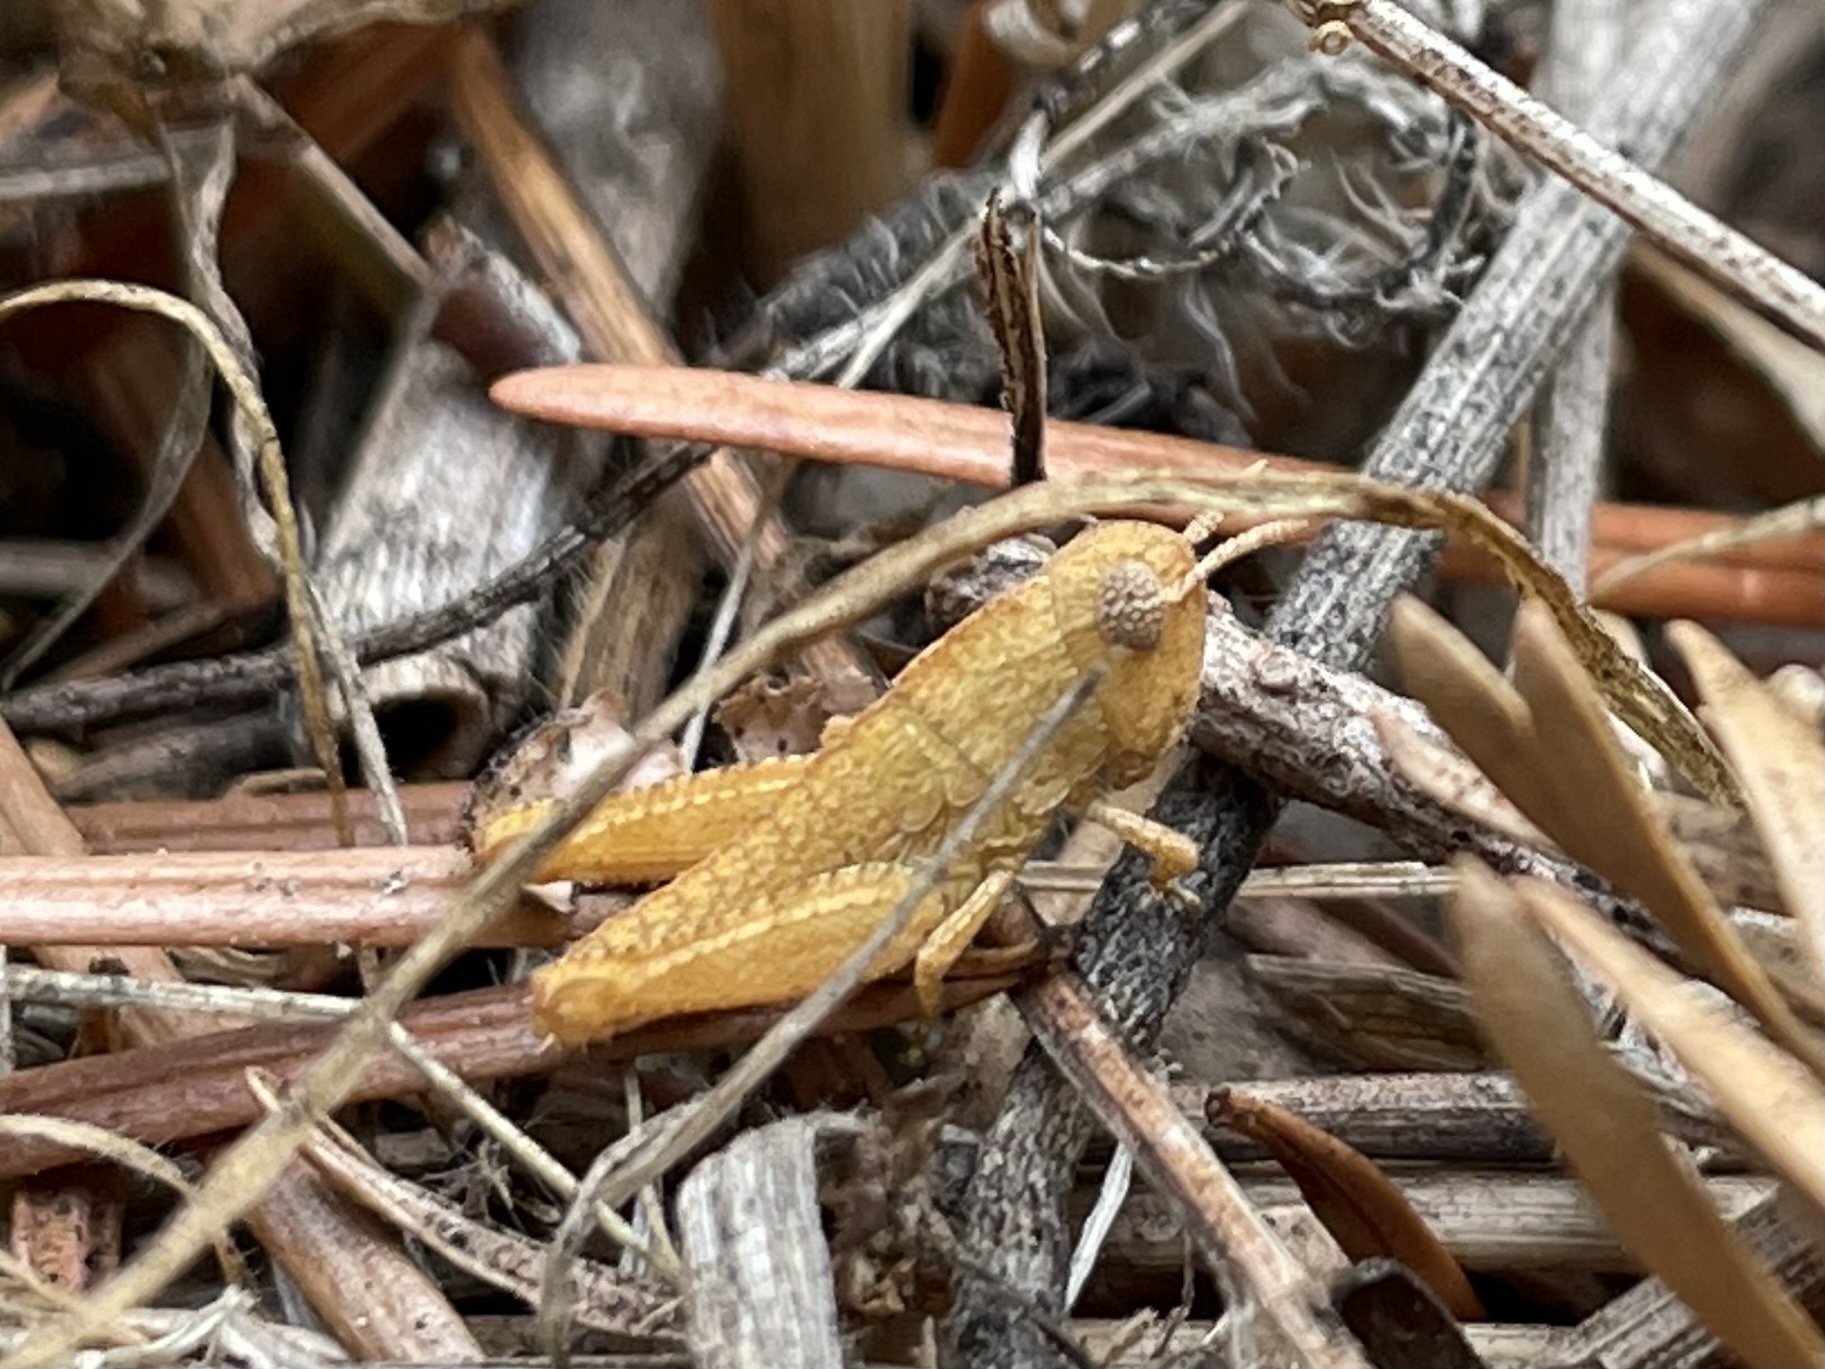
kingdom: Animalia
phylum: Arthropoda
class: Insecta
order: Orthoptera
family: Acrididae
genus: Chimarocephala
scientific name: Chimarocephala pacifica
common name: Painted meadow grasshopper
